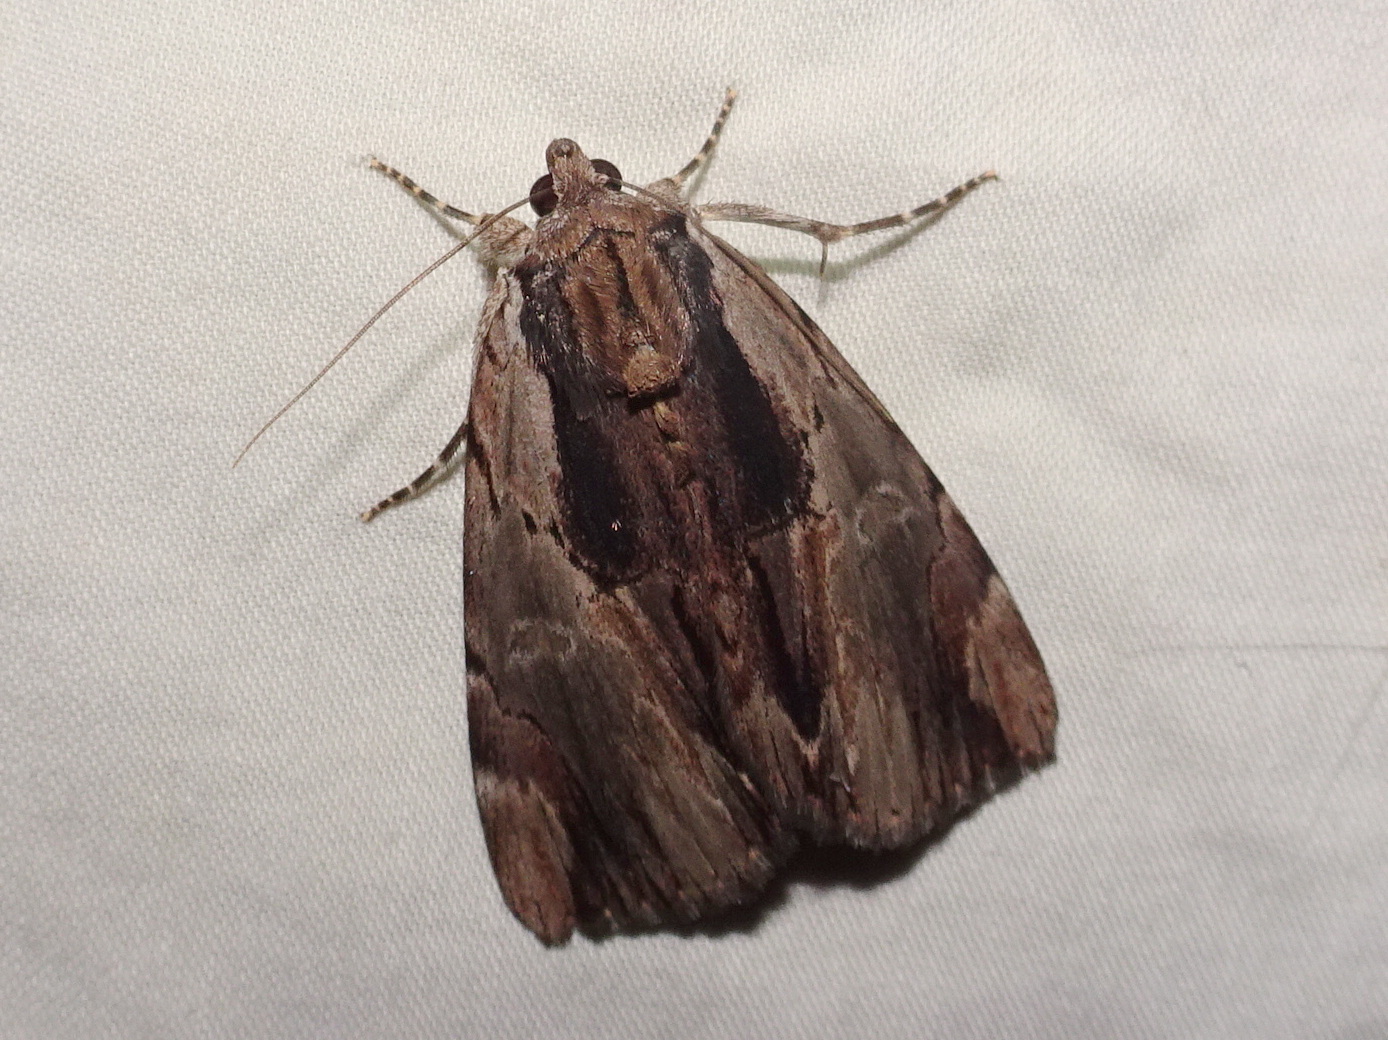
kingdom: Animalia
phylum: Arthropoda
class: Insecta
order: Lepidoptera
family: Erebidae
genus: Catocala
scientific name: Catocala ultronia
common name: Ultronia underwing
